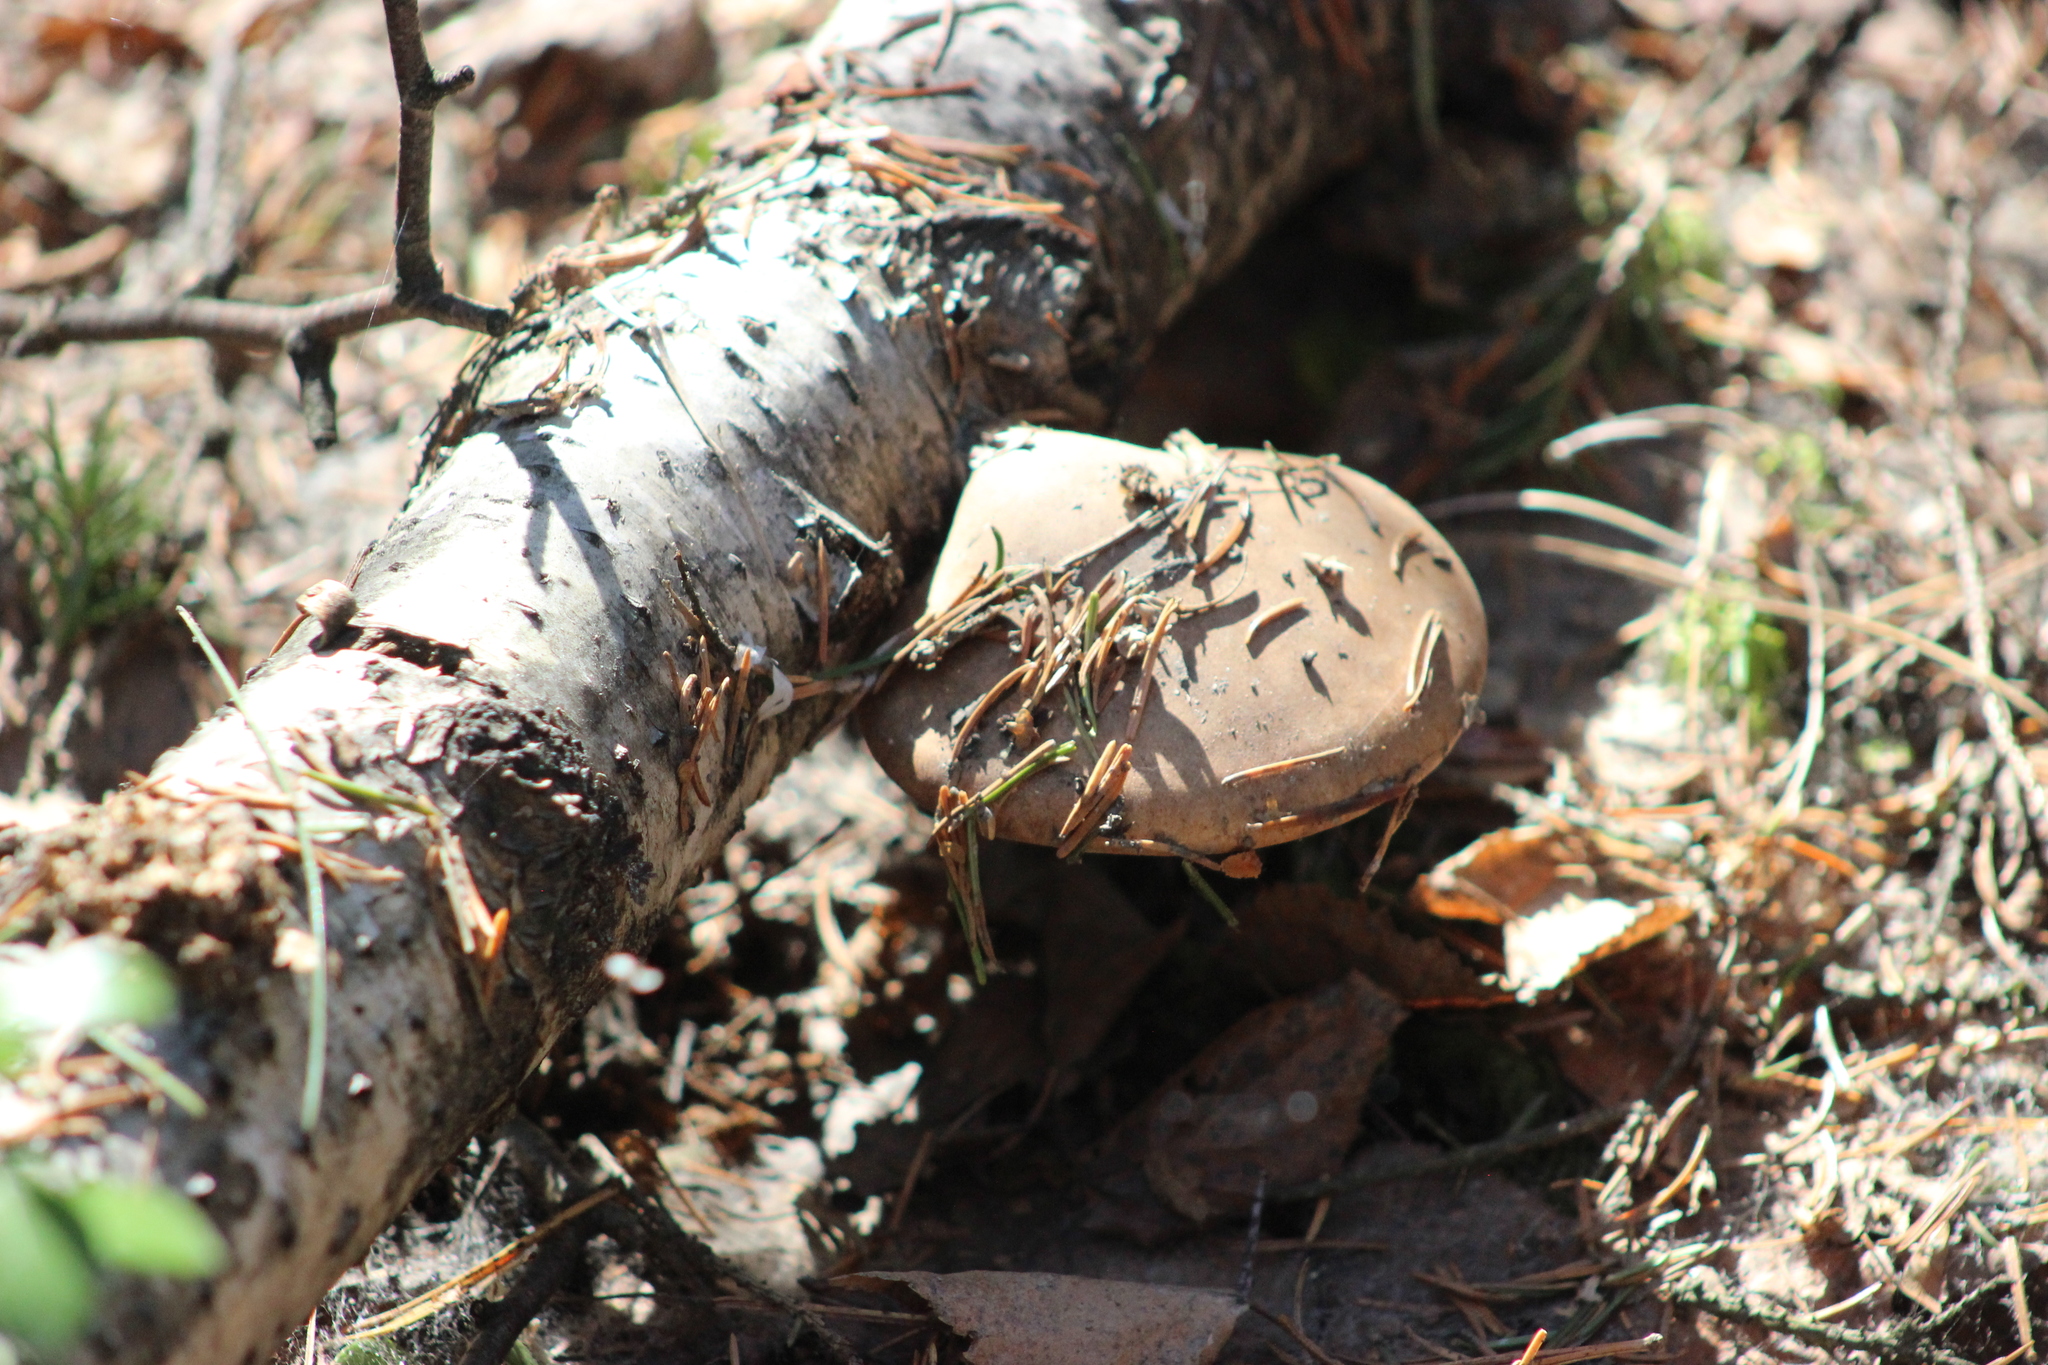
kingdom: Fungi
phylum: Basidiomycota
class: Agaricomycetes
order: Polyporales
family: Fomitopsidaceae
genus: Fomitopsis
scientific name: Fomitopsis betulina
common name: Birch polypore
